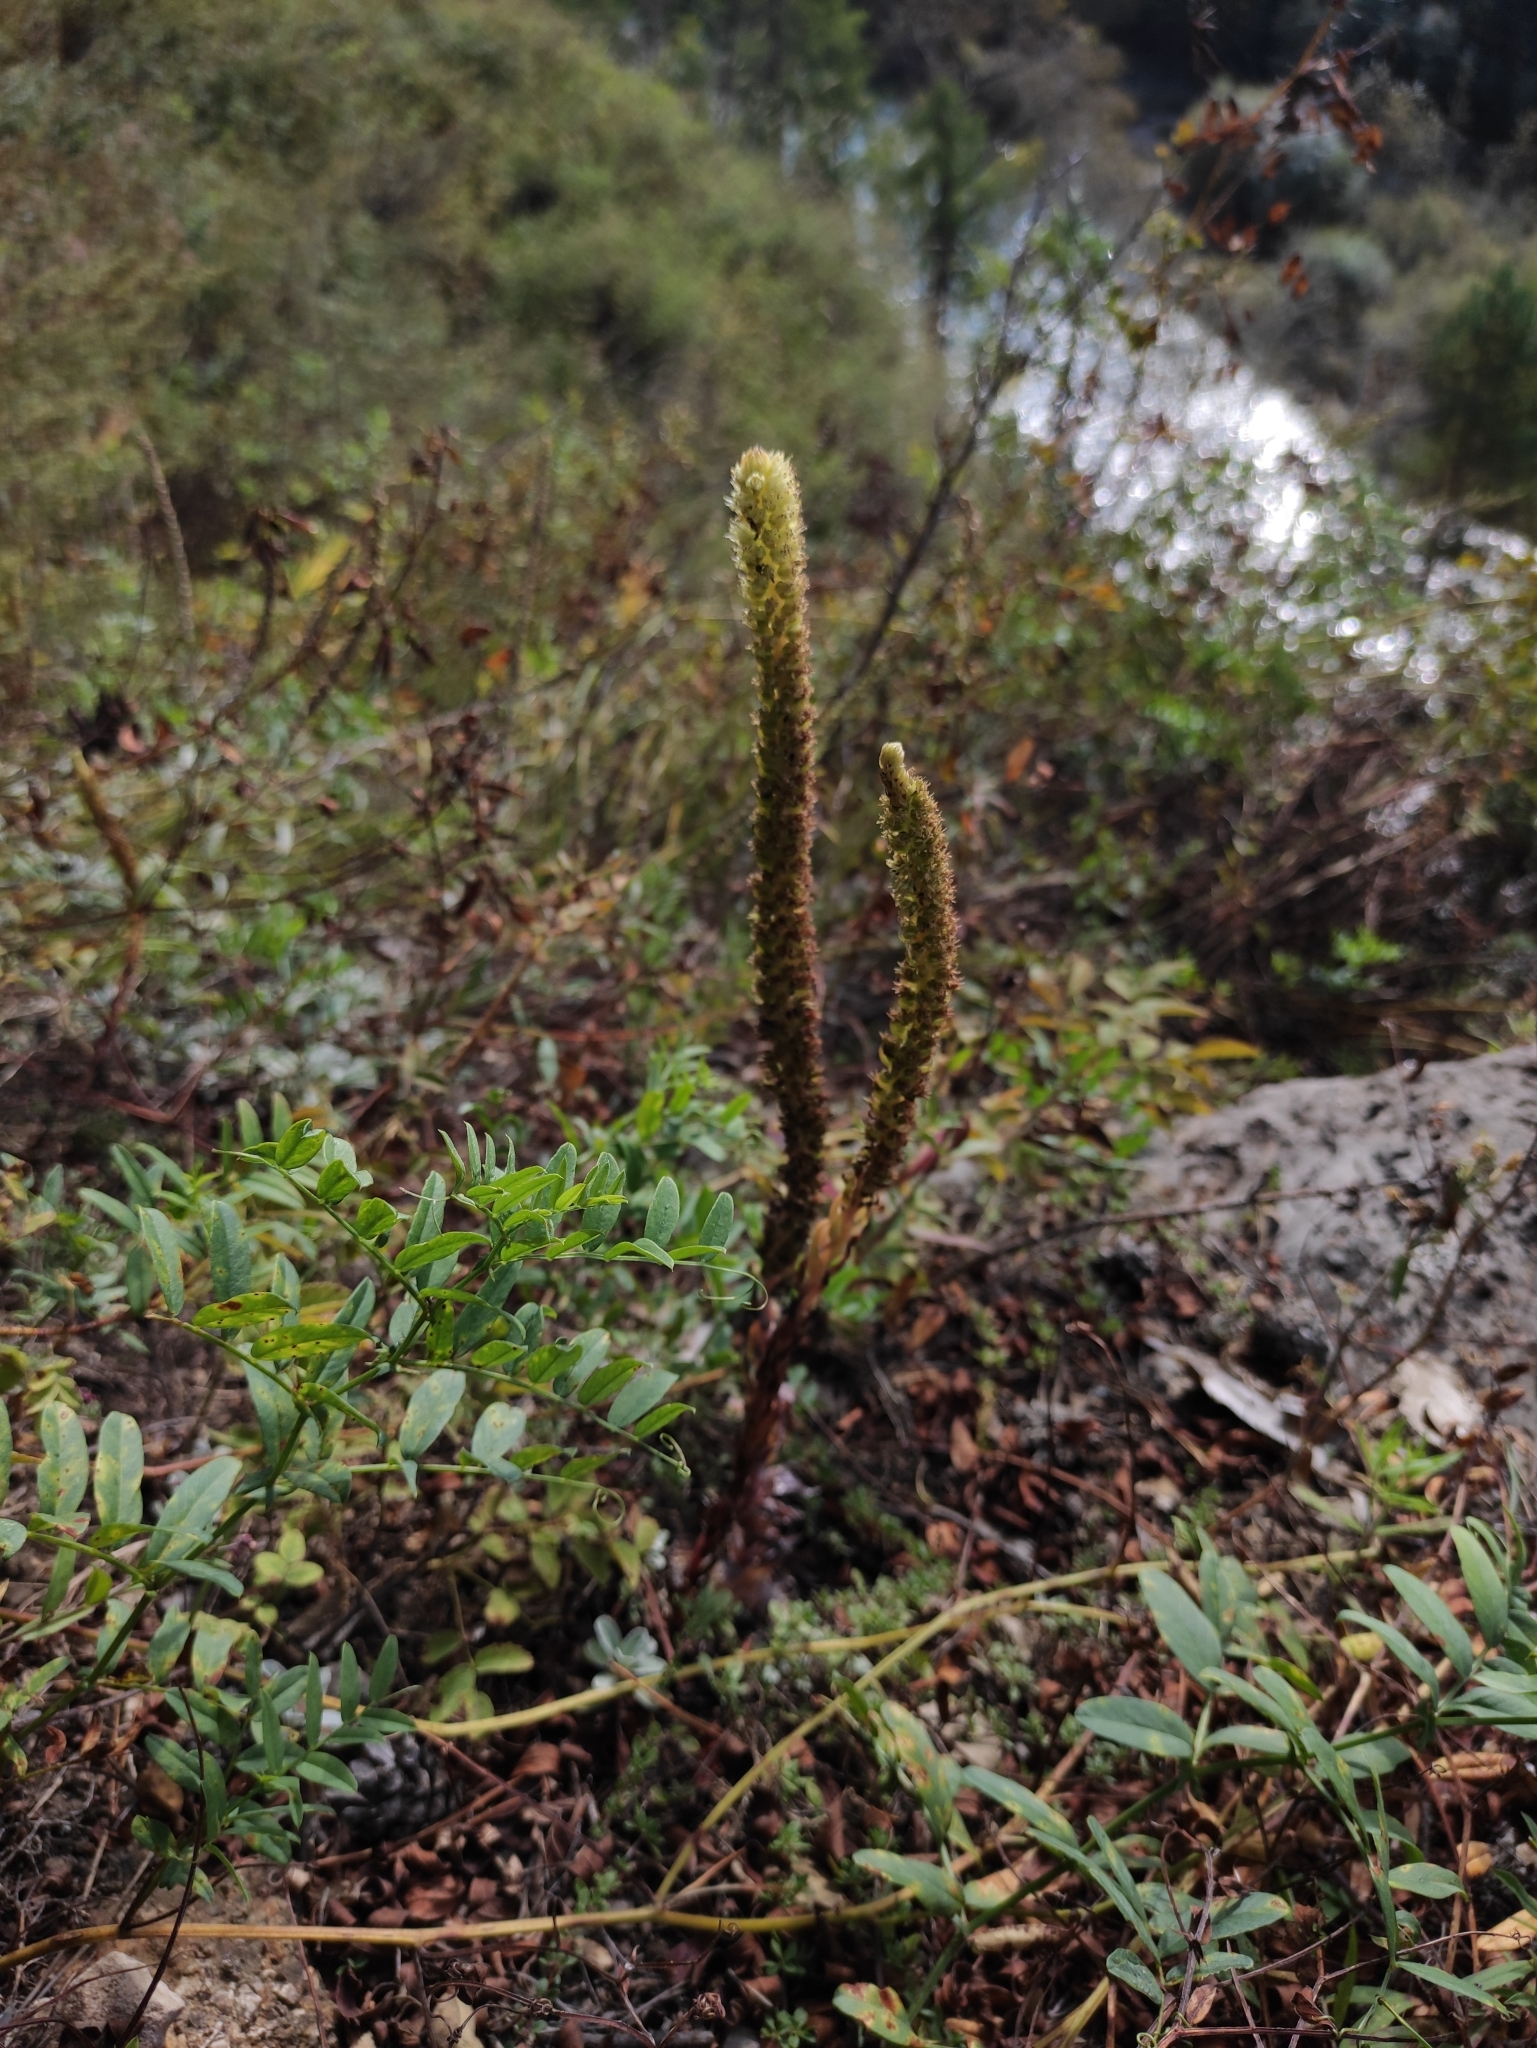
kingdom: Plantae
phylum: Tracheophyta
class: Magnoliopsida
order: Saxifragales
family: Crassulaceae
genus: Orostachys
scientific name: Orostachys spinosa
